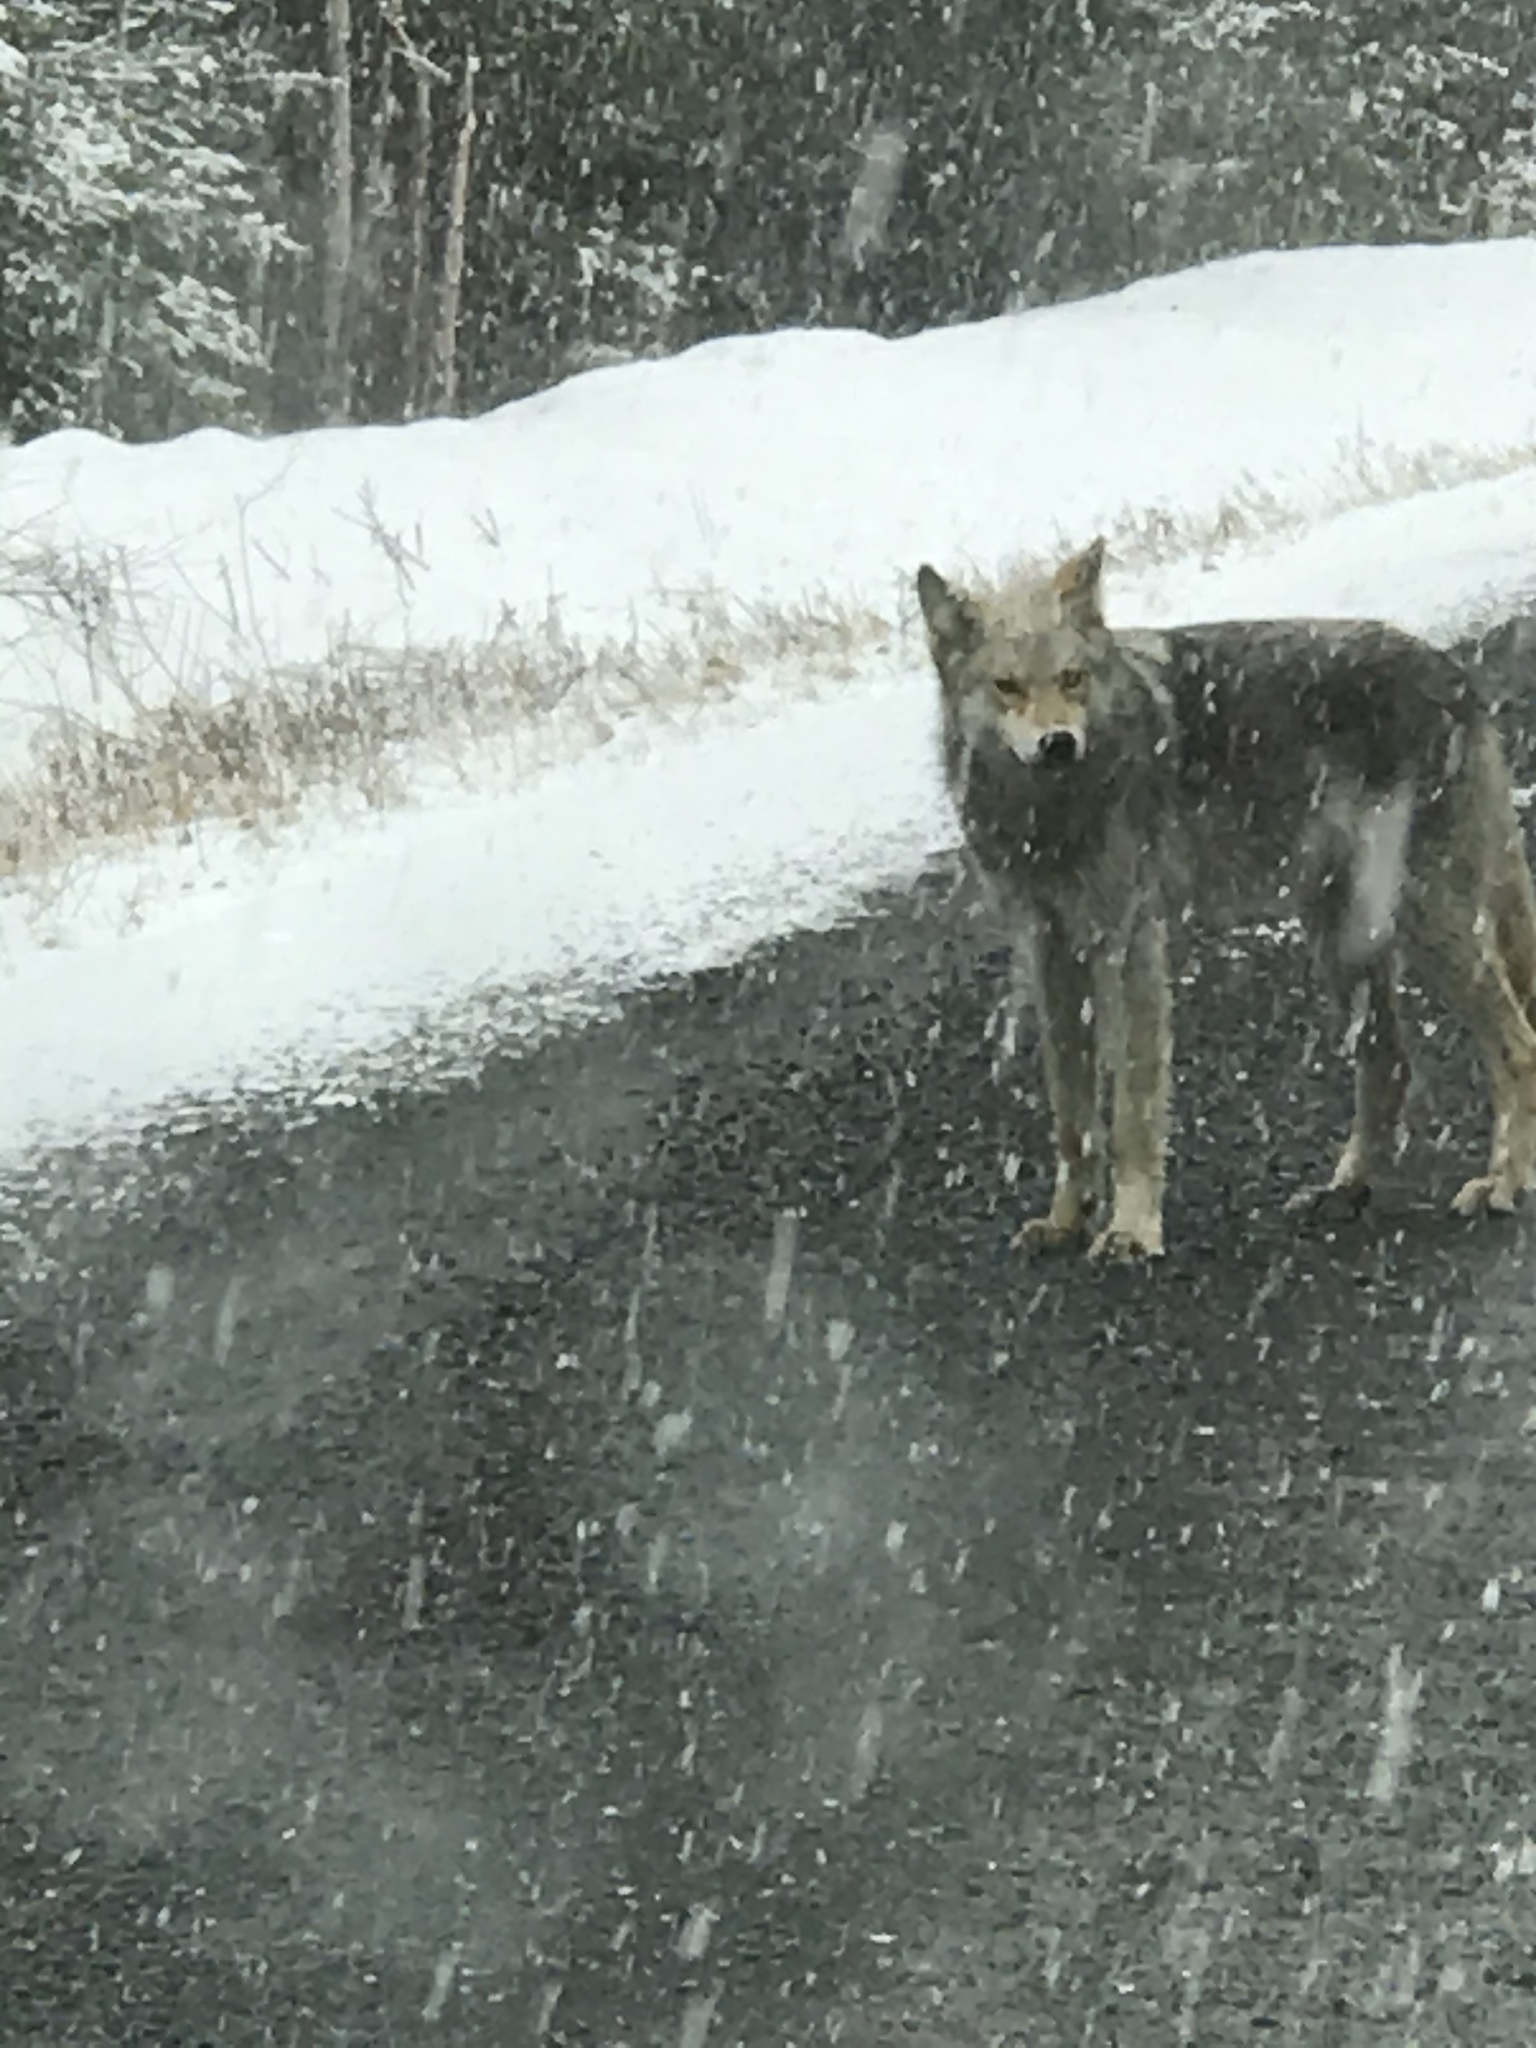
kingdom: Animalia
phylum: Chordata
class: Mammalia
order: Carnivora
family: Canidae
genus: Canis
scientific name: Canis latrans
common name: Coyote
